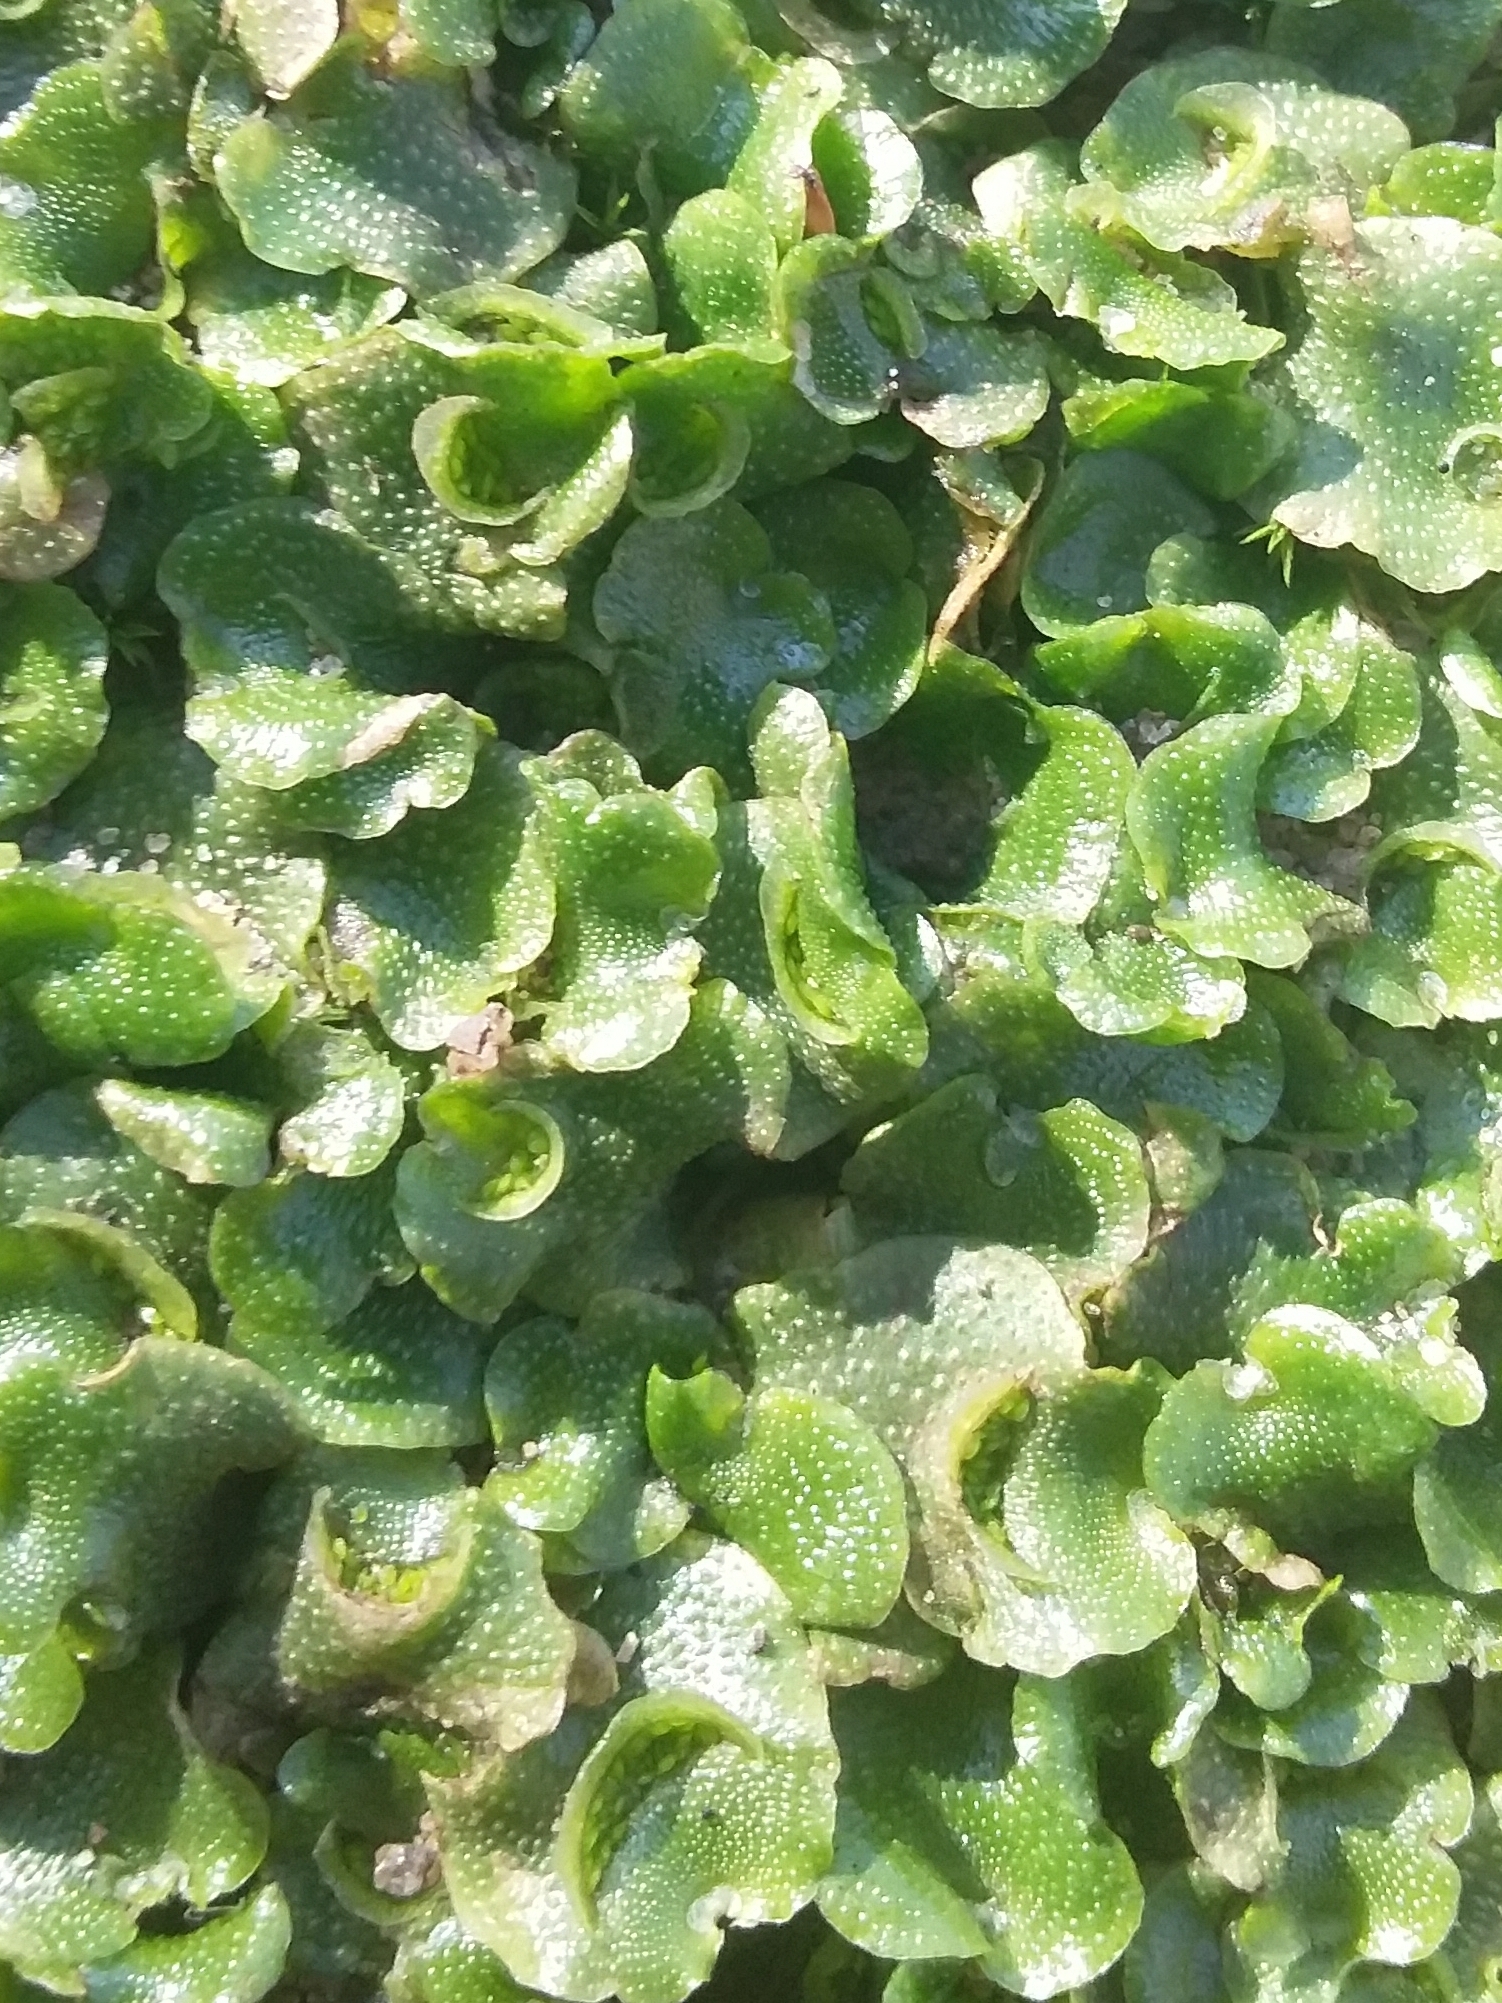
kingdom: Plantae
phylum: Marchantiophyta
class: Marchantiopsida
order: Lunulariales
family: Lunulariaceae
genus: Lunularia
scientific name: Lunularia cruciata
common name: Crescent-cup liverwort
